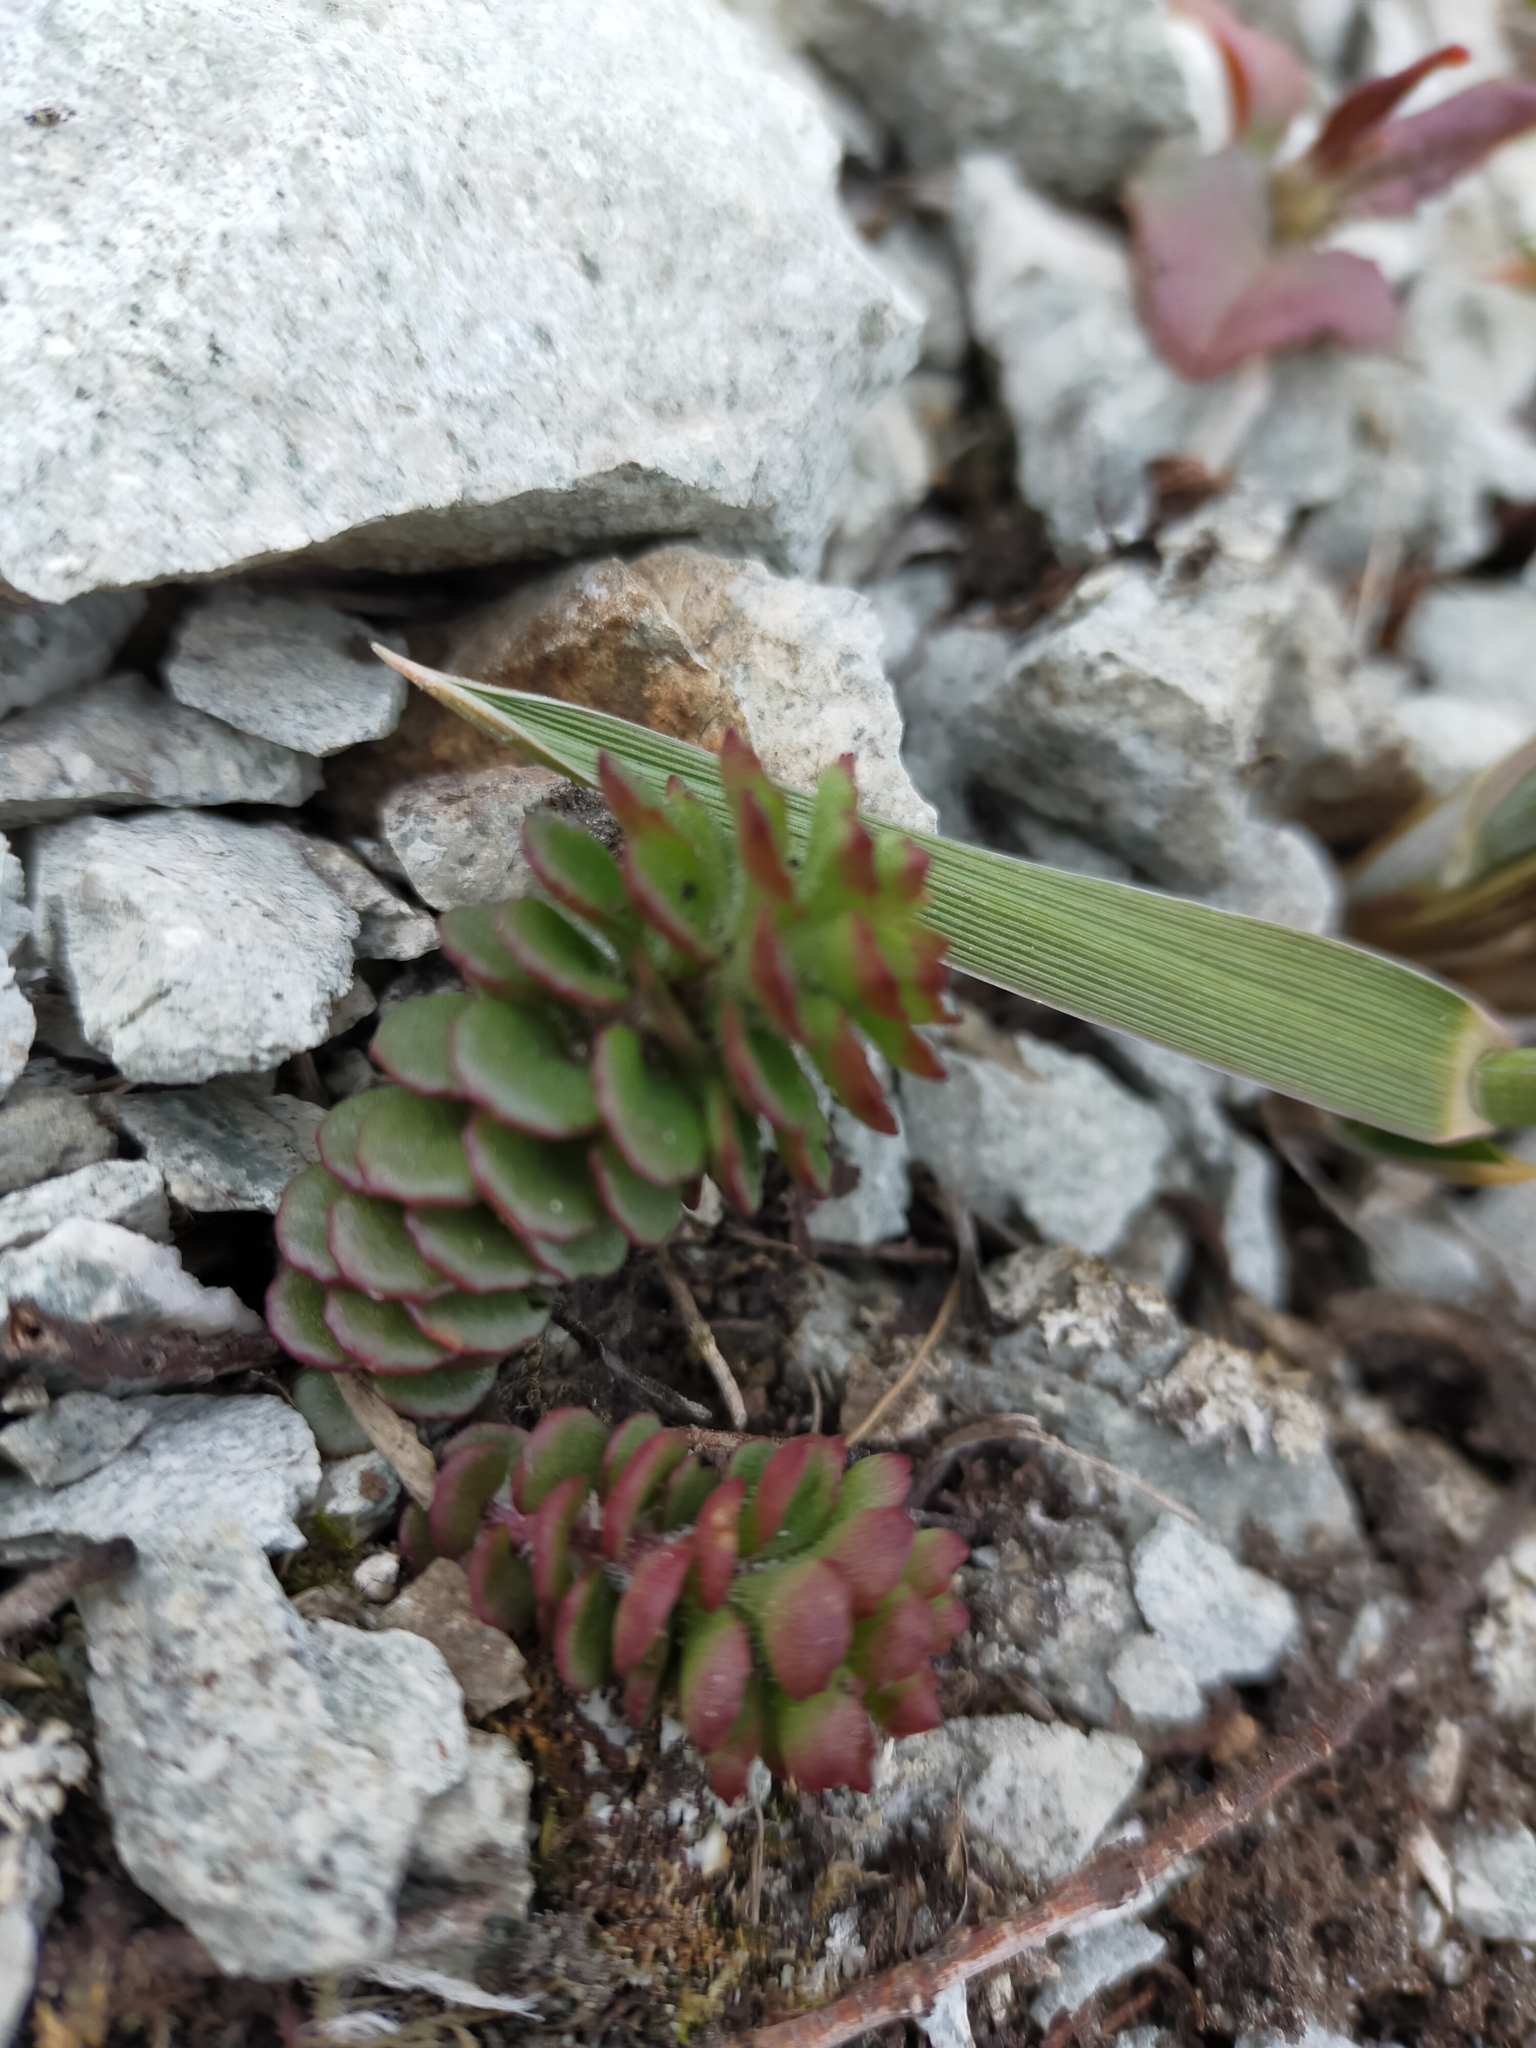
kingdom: Plantae
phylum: Tracheophyta
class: Magnoliopsida
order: Saxifragales
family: Crassulaceae
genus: Phedimus
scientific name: Phedimus selskanianus
